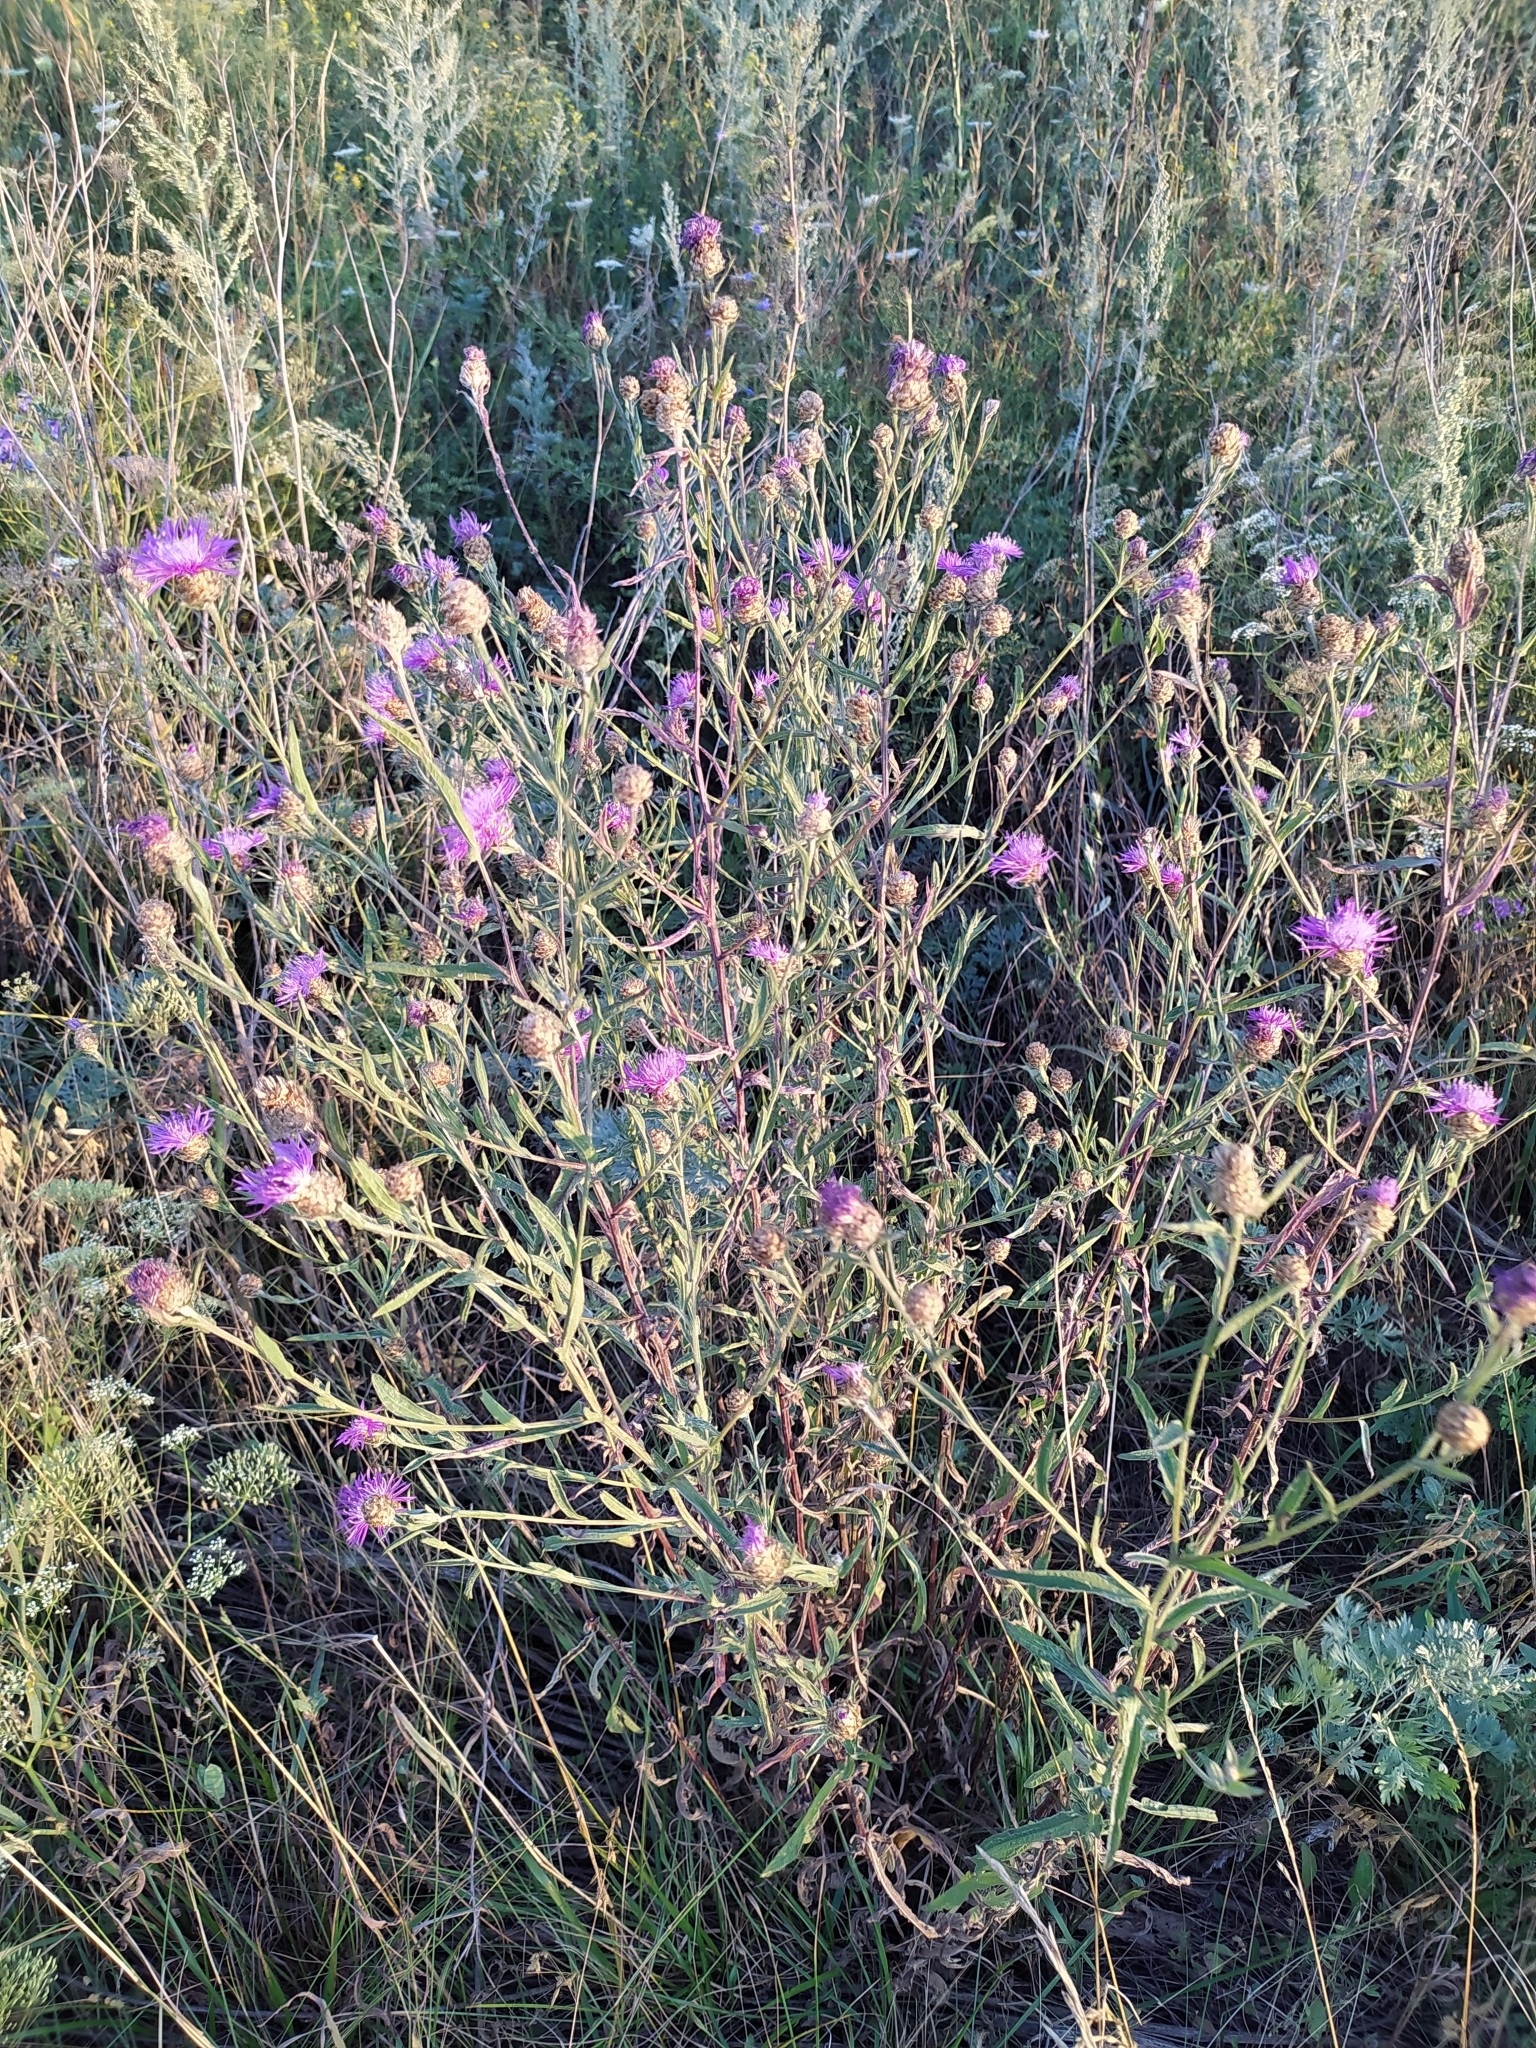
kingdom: Plantae
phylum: Tracheophyta
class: Magnoliopsida
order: Asterales
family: Asteraceae
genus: Centaurea
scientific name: Centaurea jacea
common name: Brown knapweed
